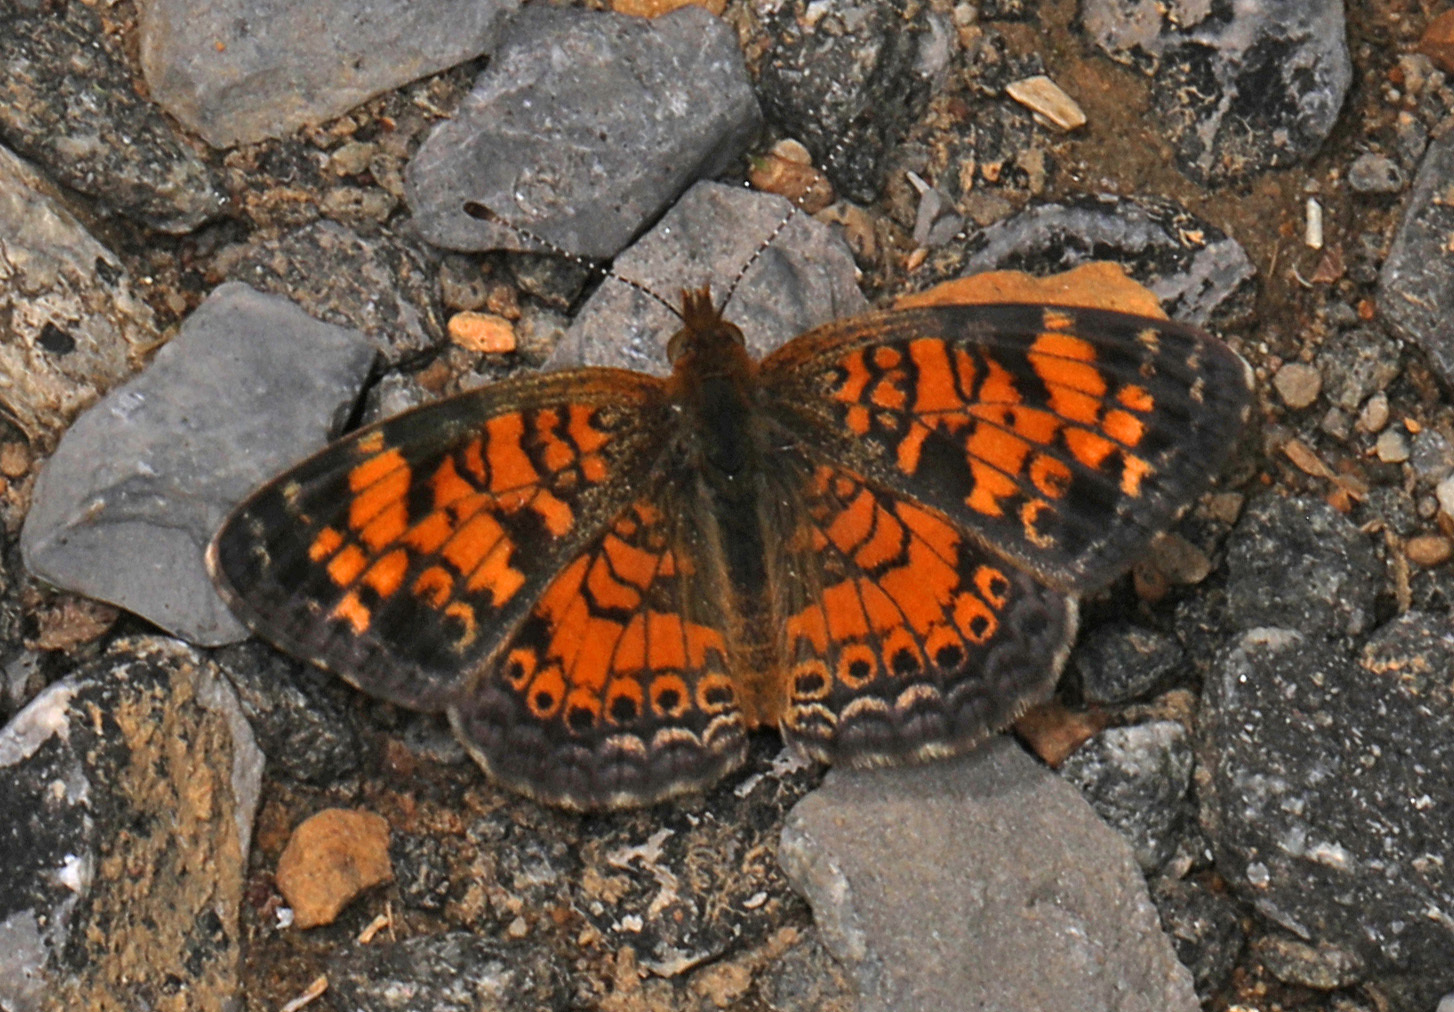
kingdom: Animalia
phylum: Arthropoda
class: Insecta
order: Lepidoptera
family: Nymphalidae
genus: Phyciodes
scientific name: Phyciodes tharos
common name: Pearl crescent
